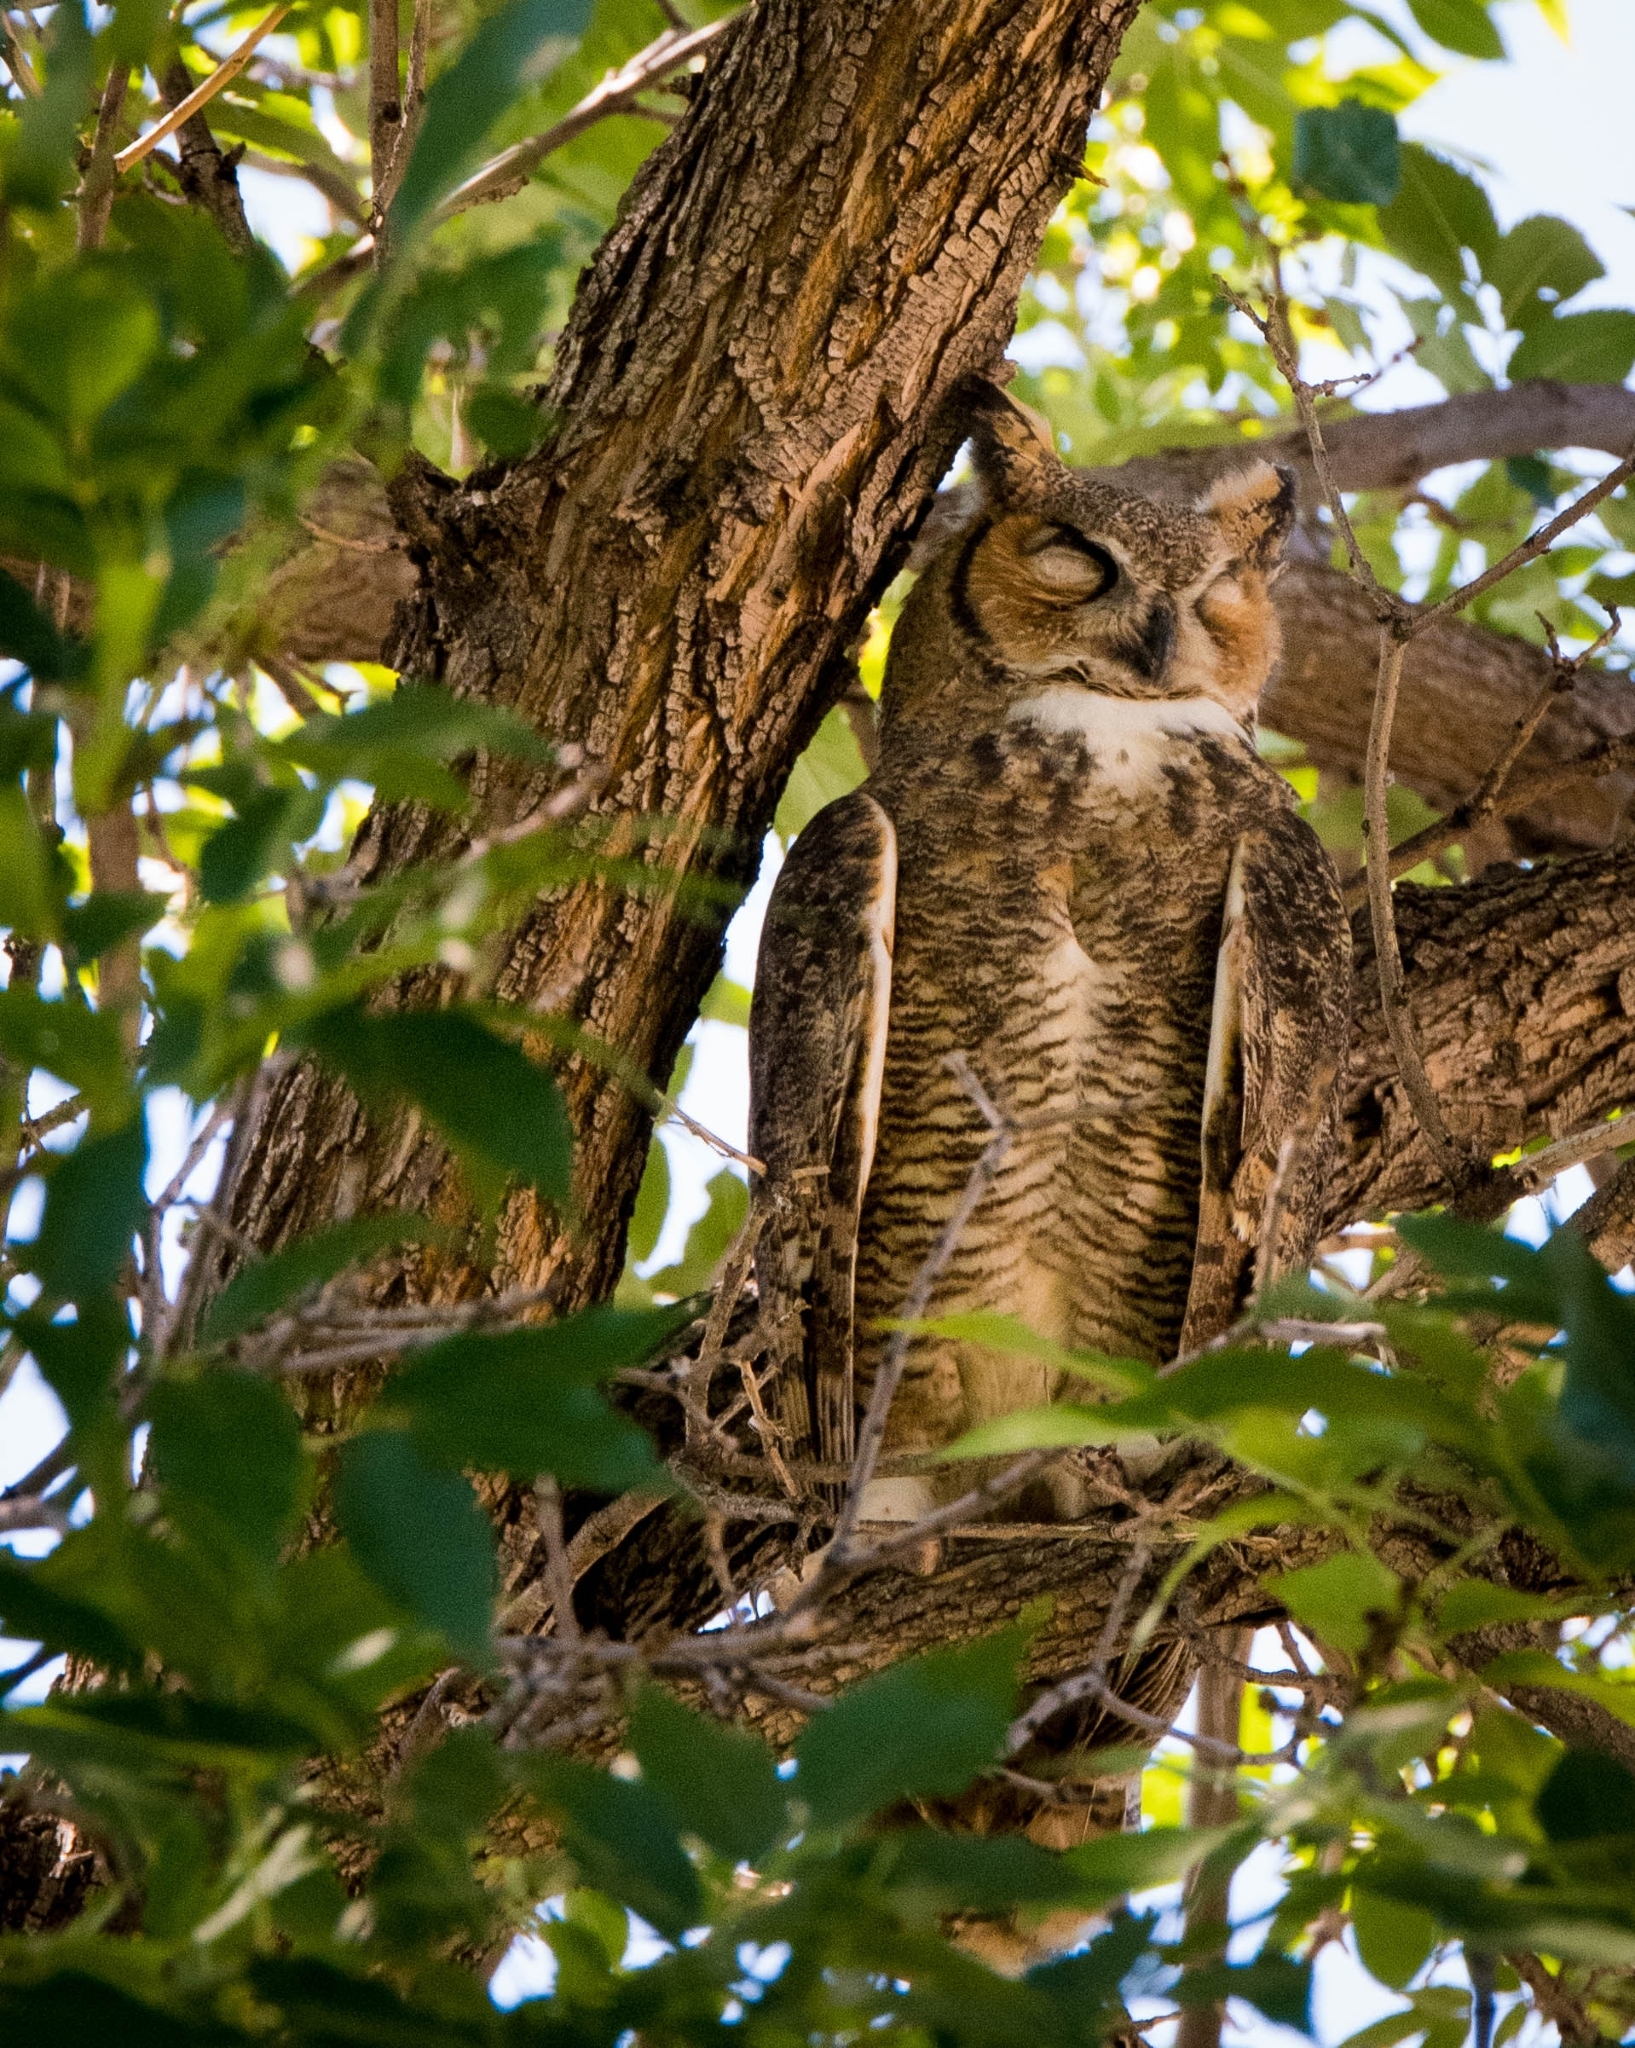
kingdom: Animalia
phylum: Chordata
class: Aves
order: Strigiformes
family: Strigidae
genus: Bubo
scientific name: Bubo virginianus
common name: Great horned owl
